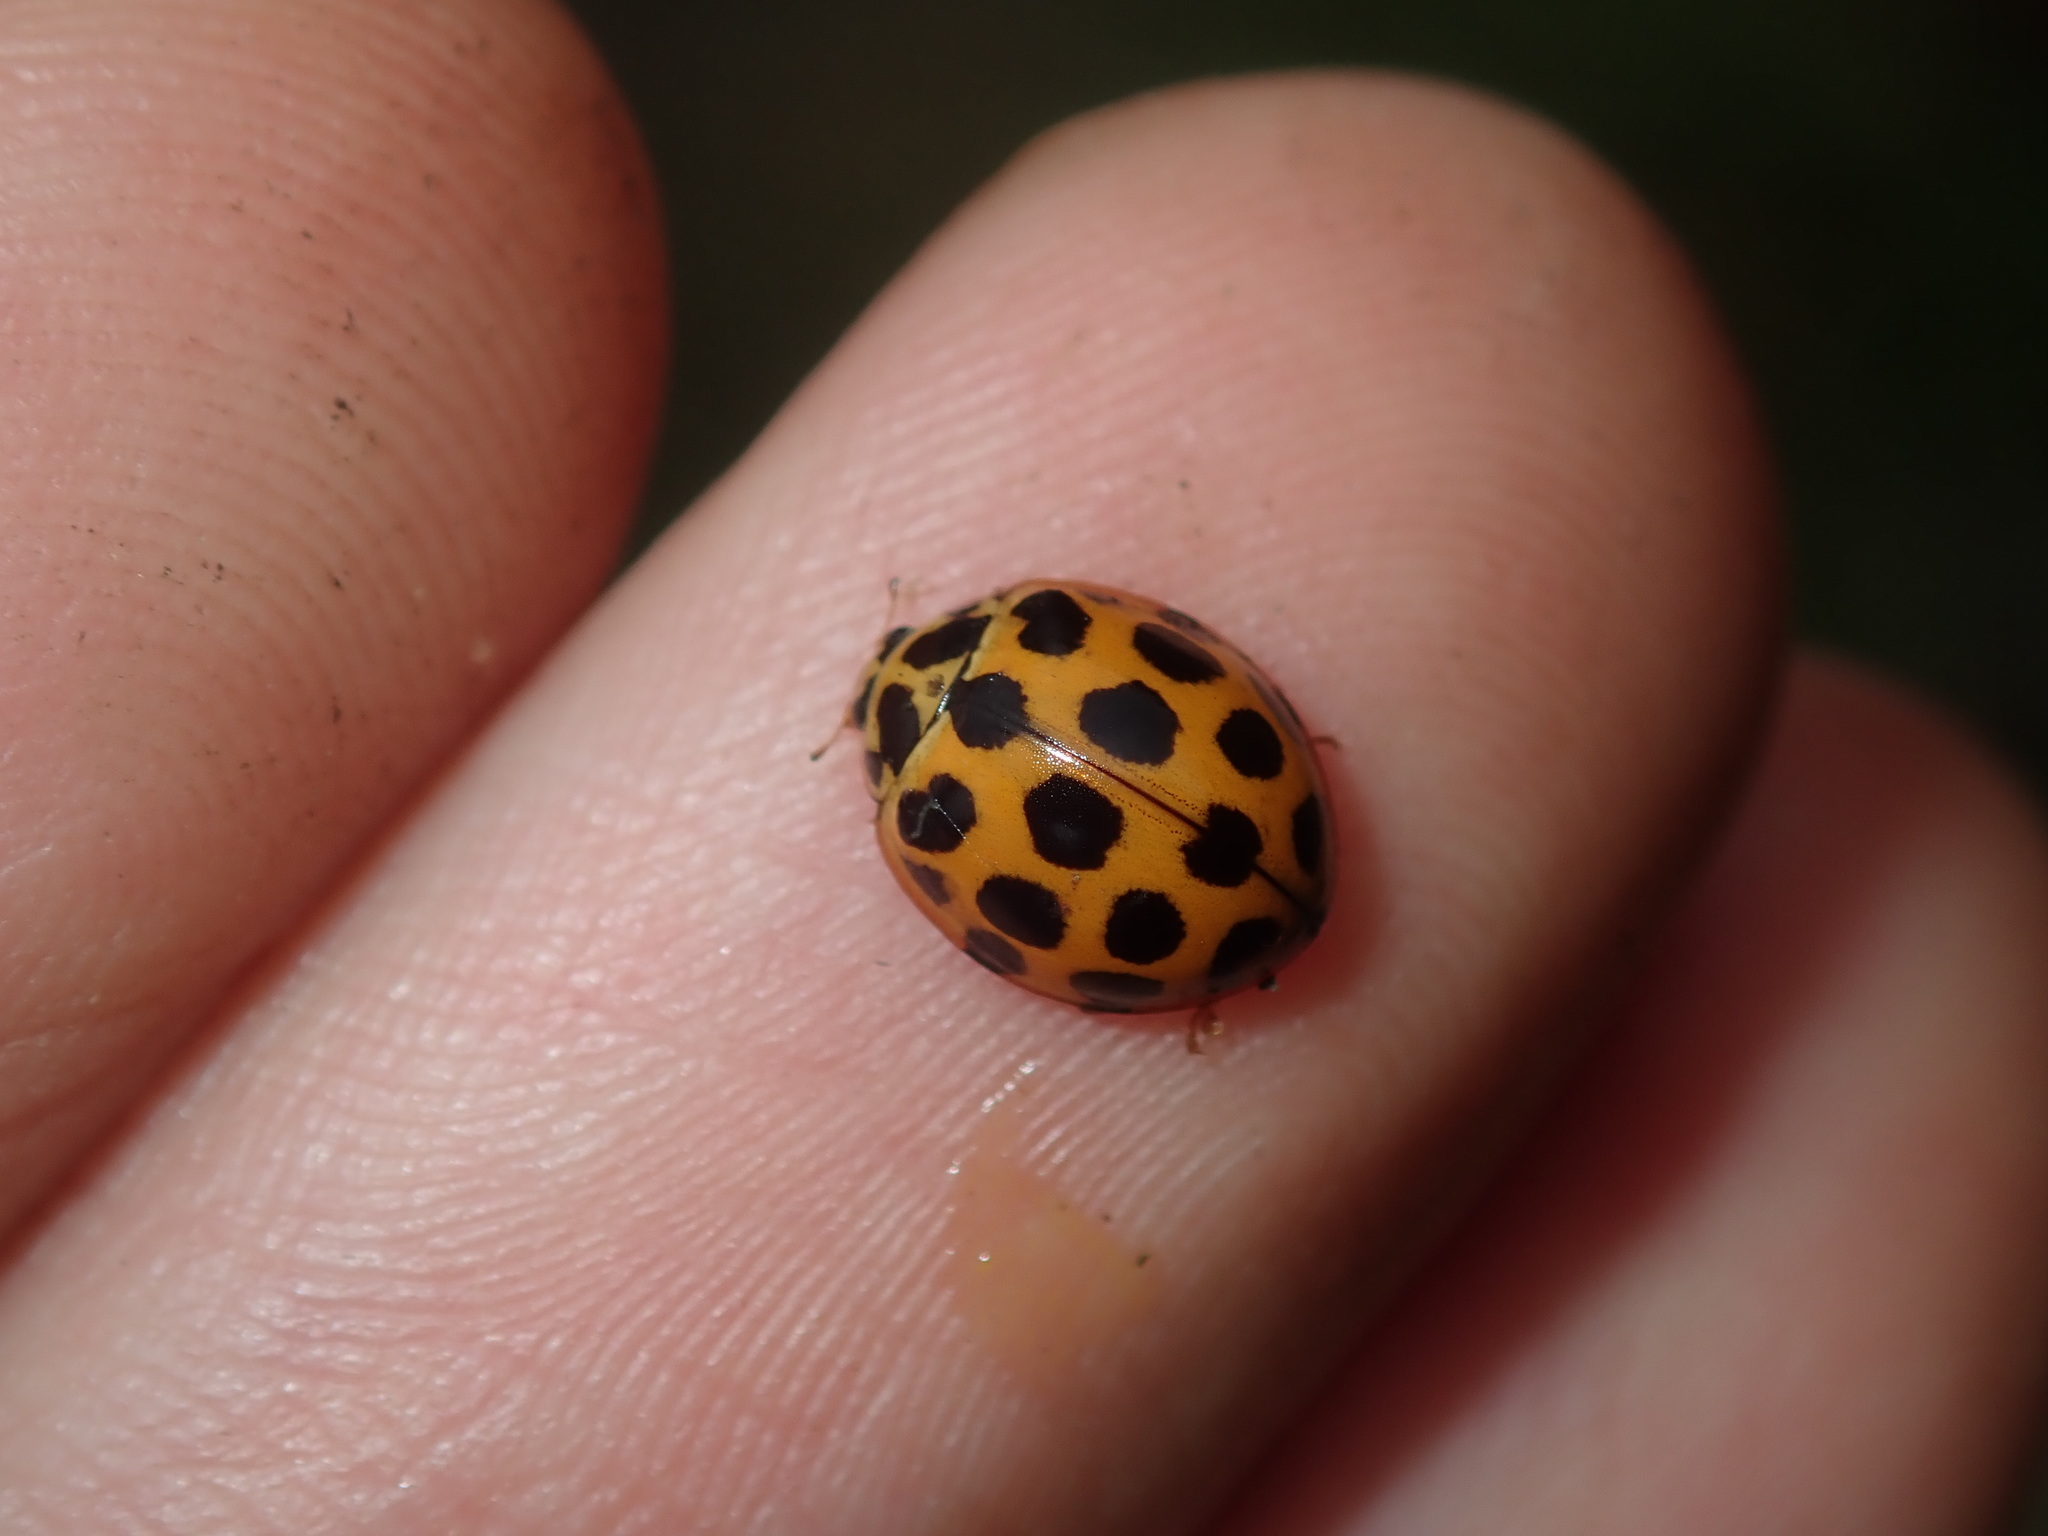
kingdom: Animalia
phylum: Arthropoda
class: Insecta
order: Coleoptera
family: Coccinellidae
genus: Harmonia
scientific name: Harmonia conformis
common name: Common spotted ladybird beetle
